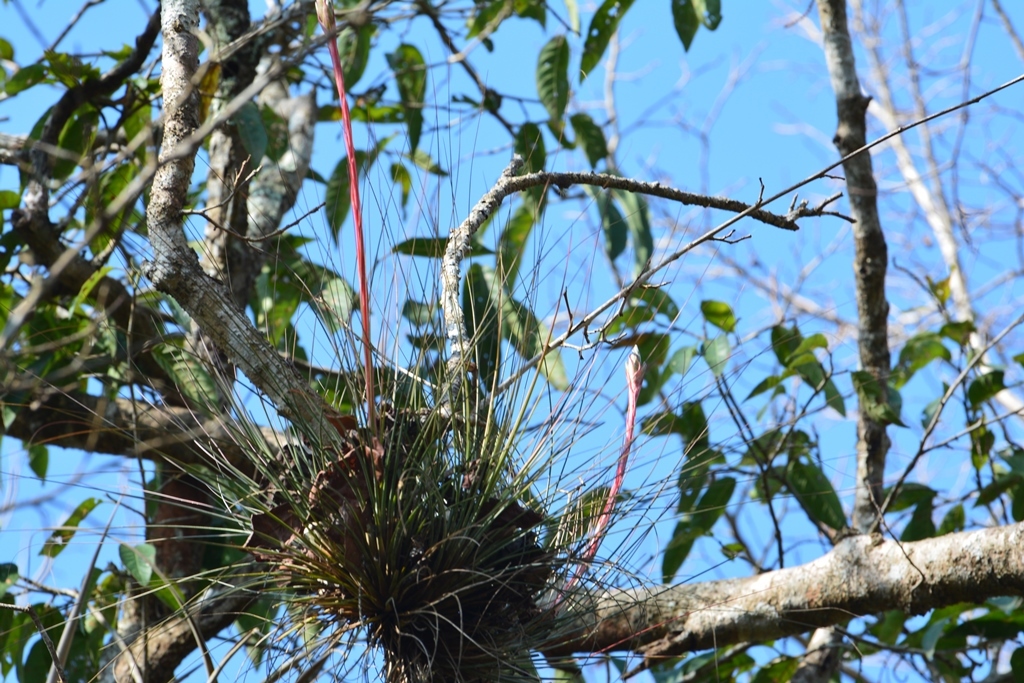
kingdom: Plantae
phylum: Tracheophyta
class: Liliopsida
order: Poales
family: Bromeliaceae
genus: Tillandsia
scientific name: Tillandsia juncea
